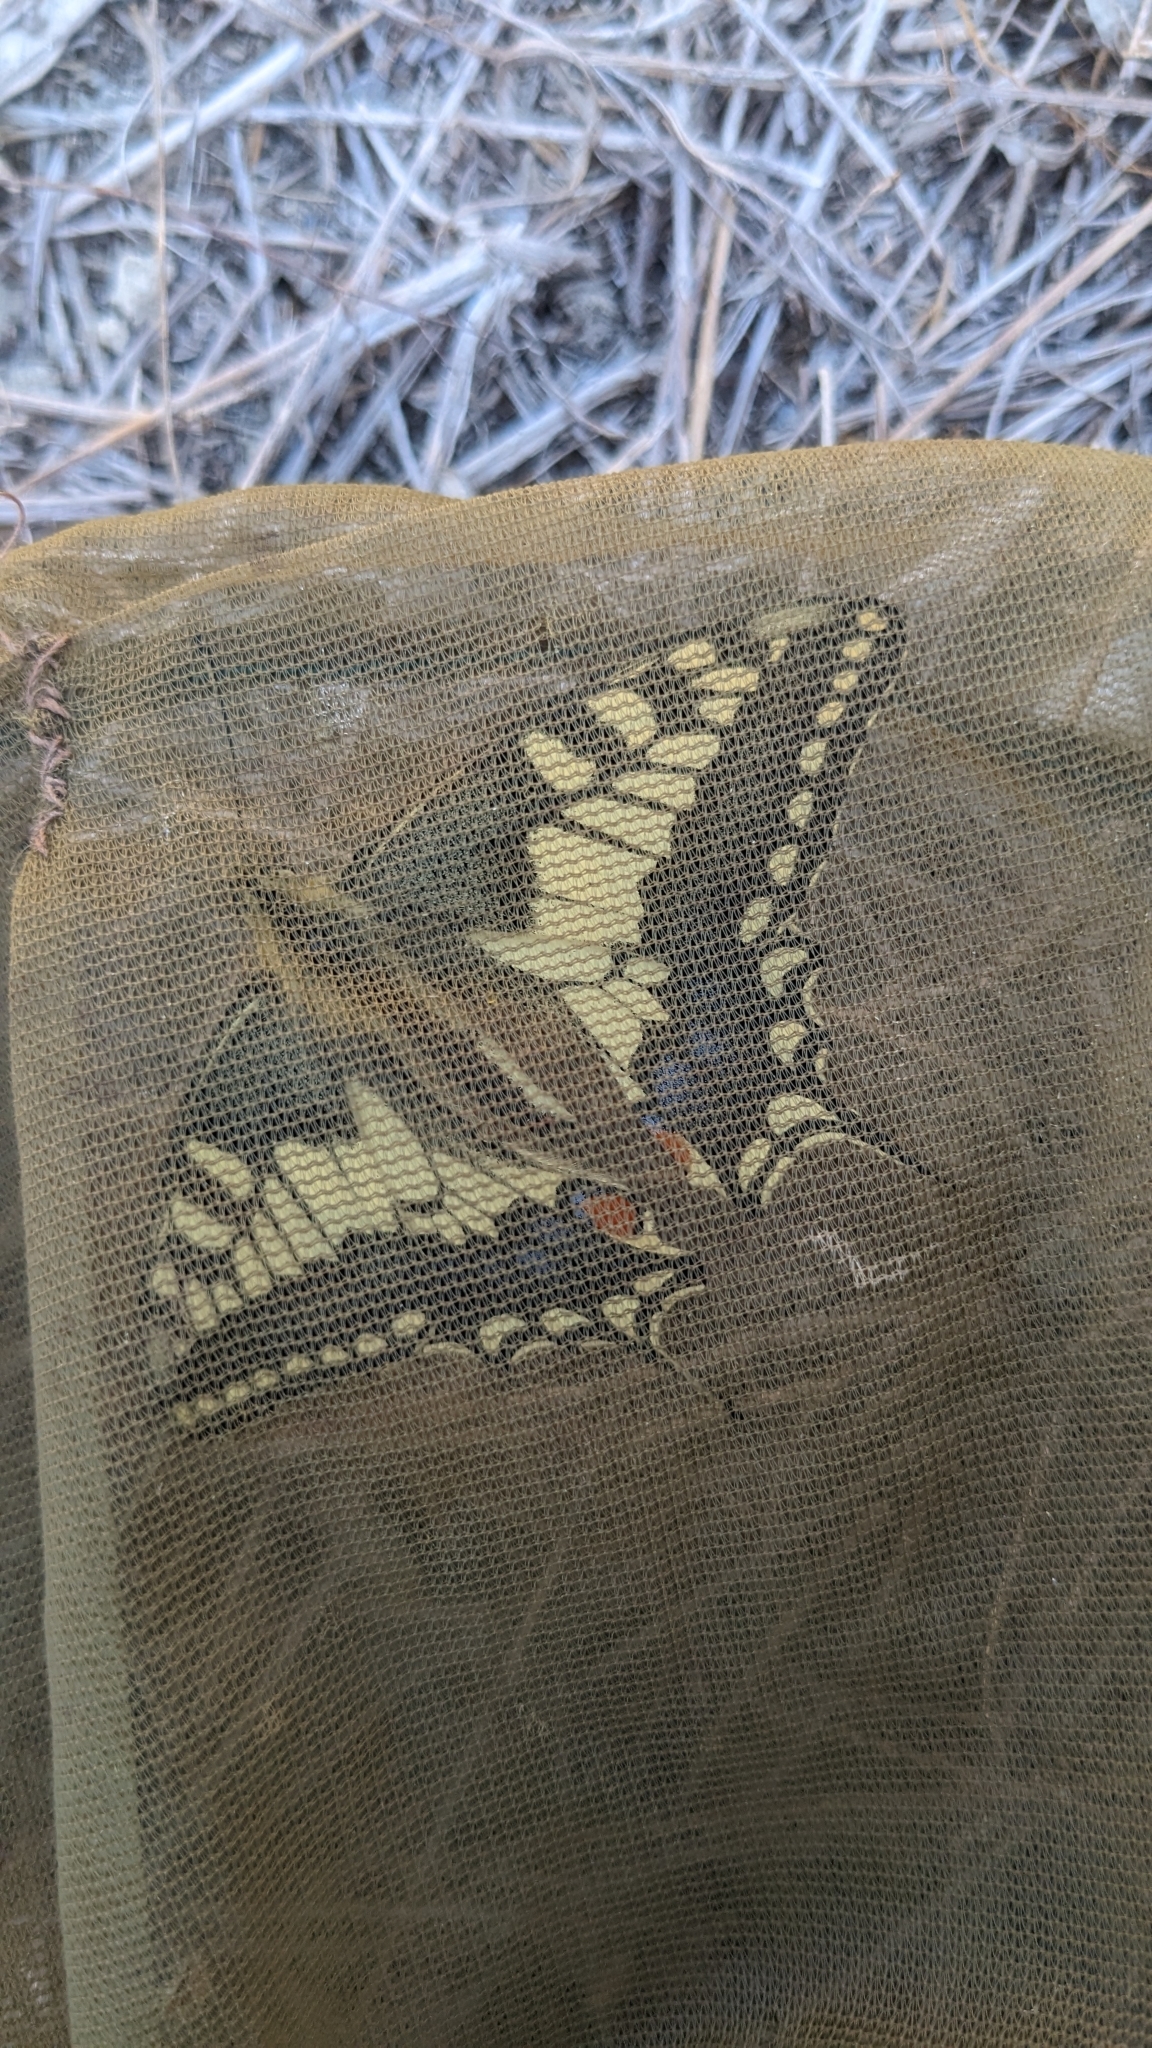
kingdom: Animalia
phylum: Arthropoda
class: Insecta
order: Lepidoptera
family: Papilionidae
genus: Papilio
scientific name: Papilio machaon
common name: Swallowtail
